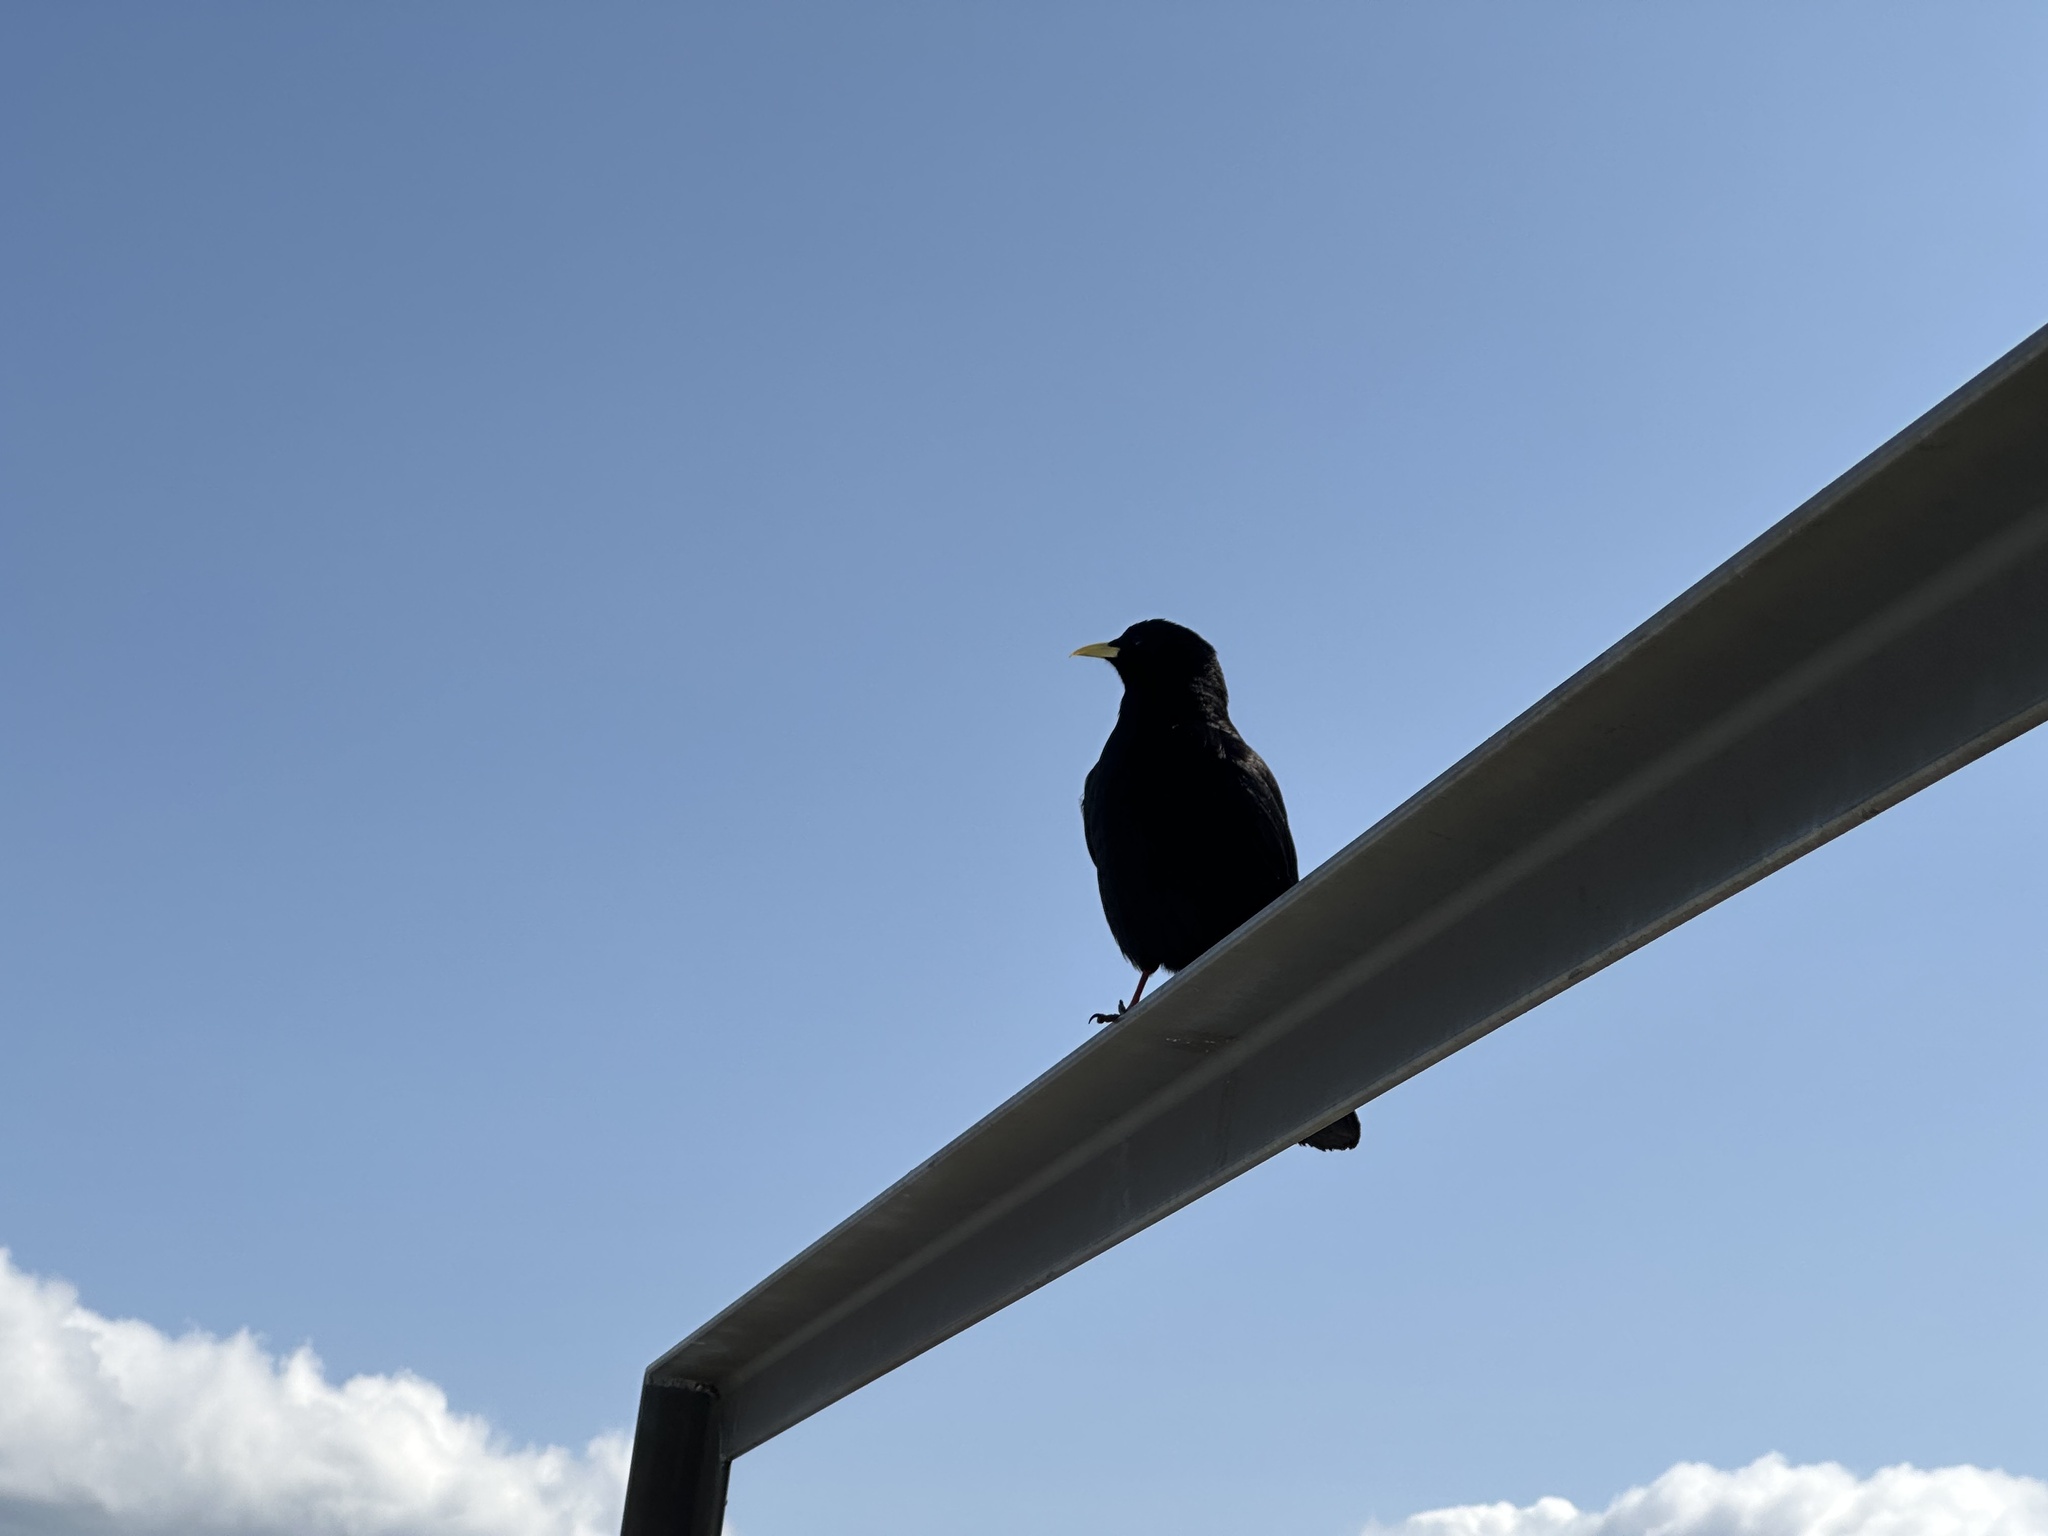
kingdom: Animalia
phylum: Chordata
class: Aves
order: Passeriformes
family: Corvidae
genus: Pyrrhocorax
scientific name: Pyrrhocorax graculus
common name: Alpine chough
